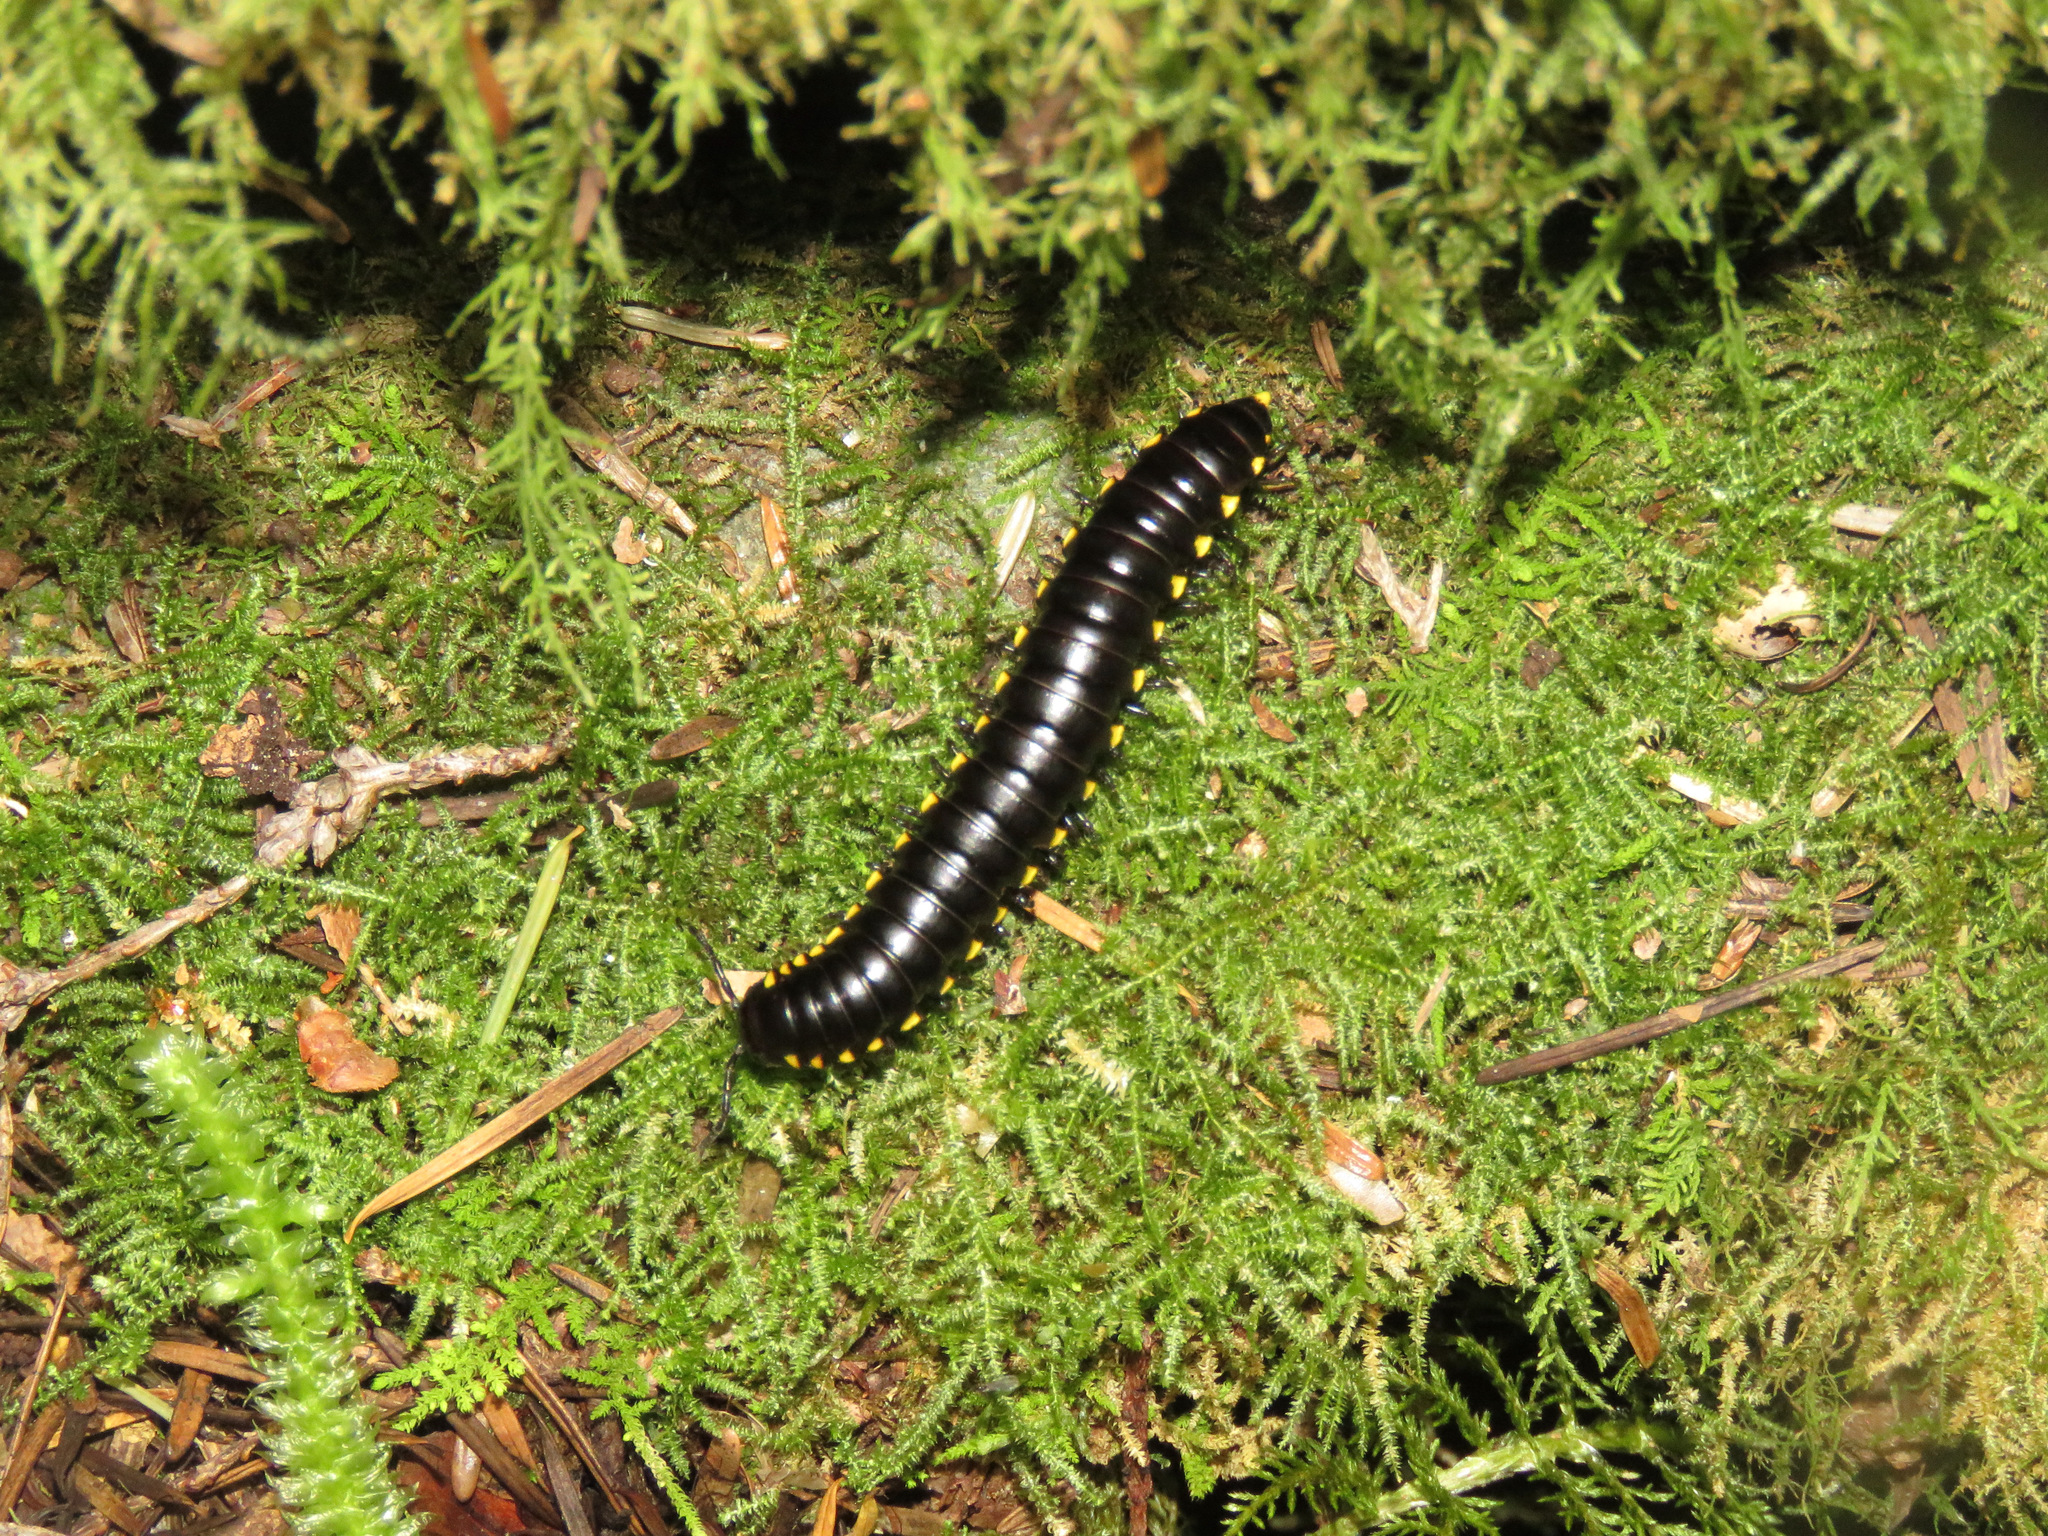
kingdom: Animalia
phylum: Arthropoda
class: Diplopoda
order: Polydesmida
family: Xystodesmidae
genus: Harpaphe
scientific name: Harpaphe haydeniana
